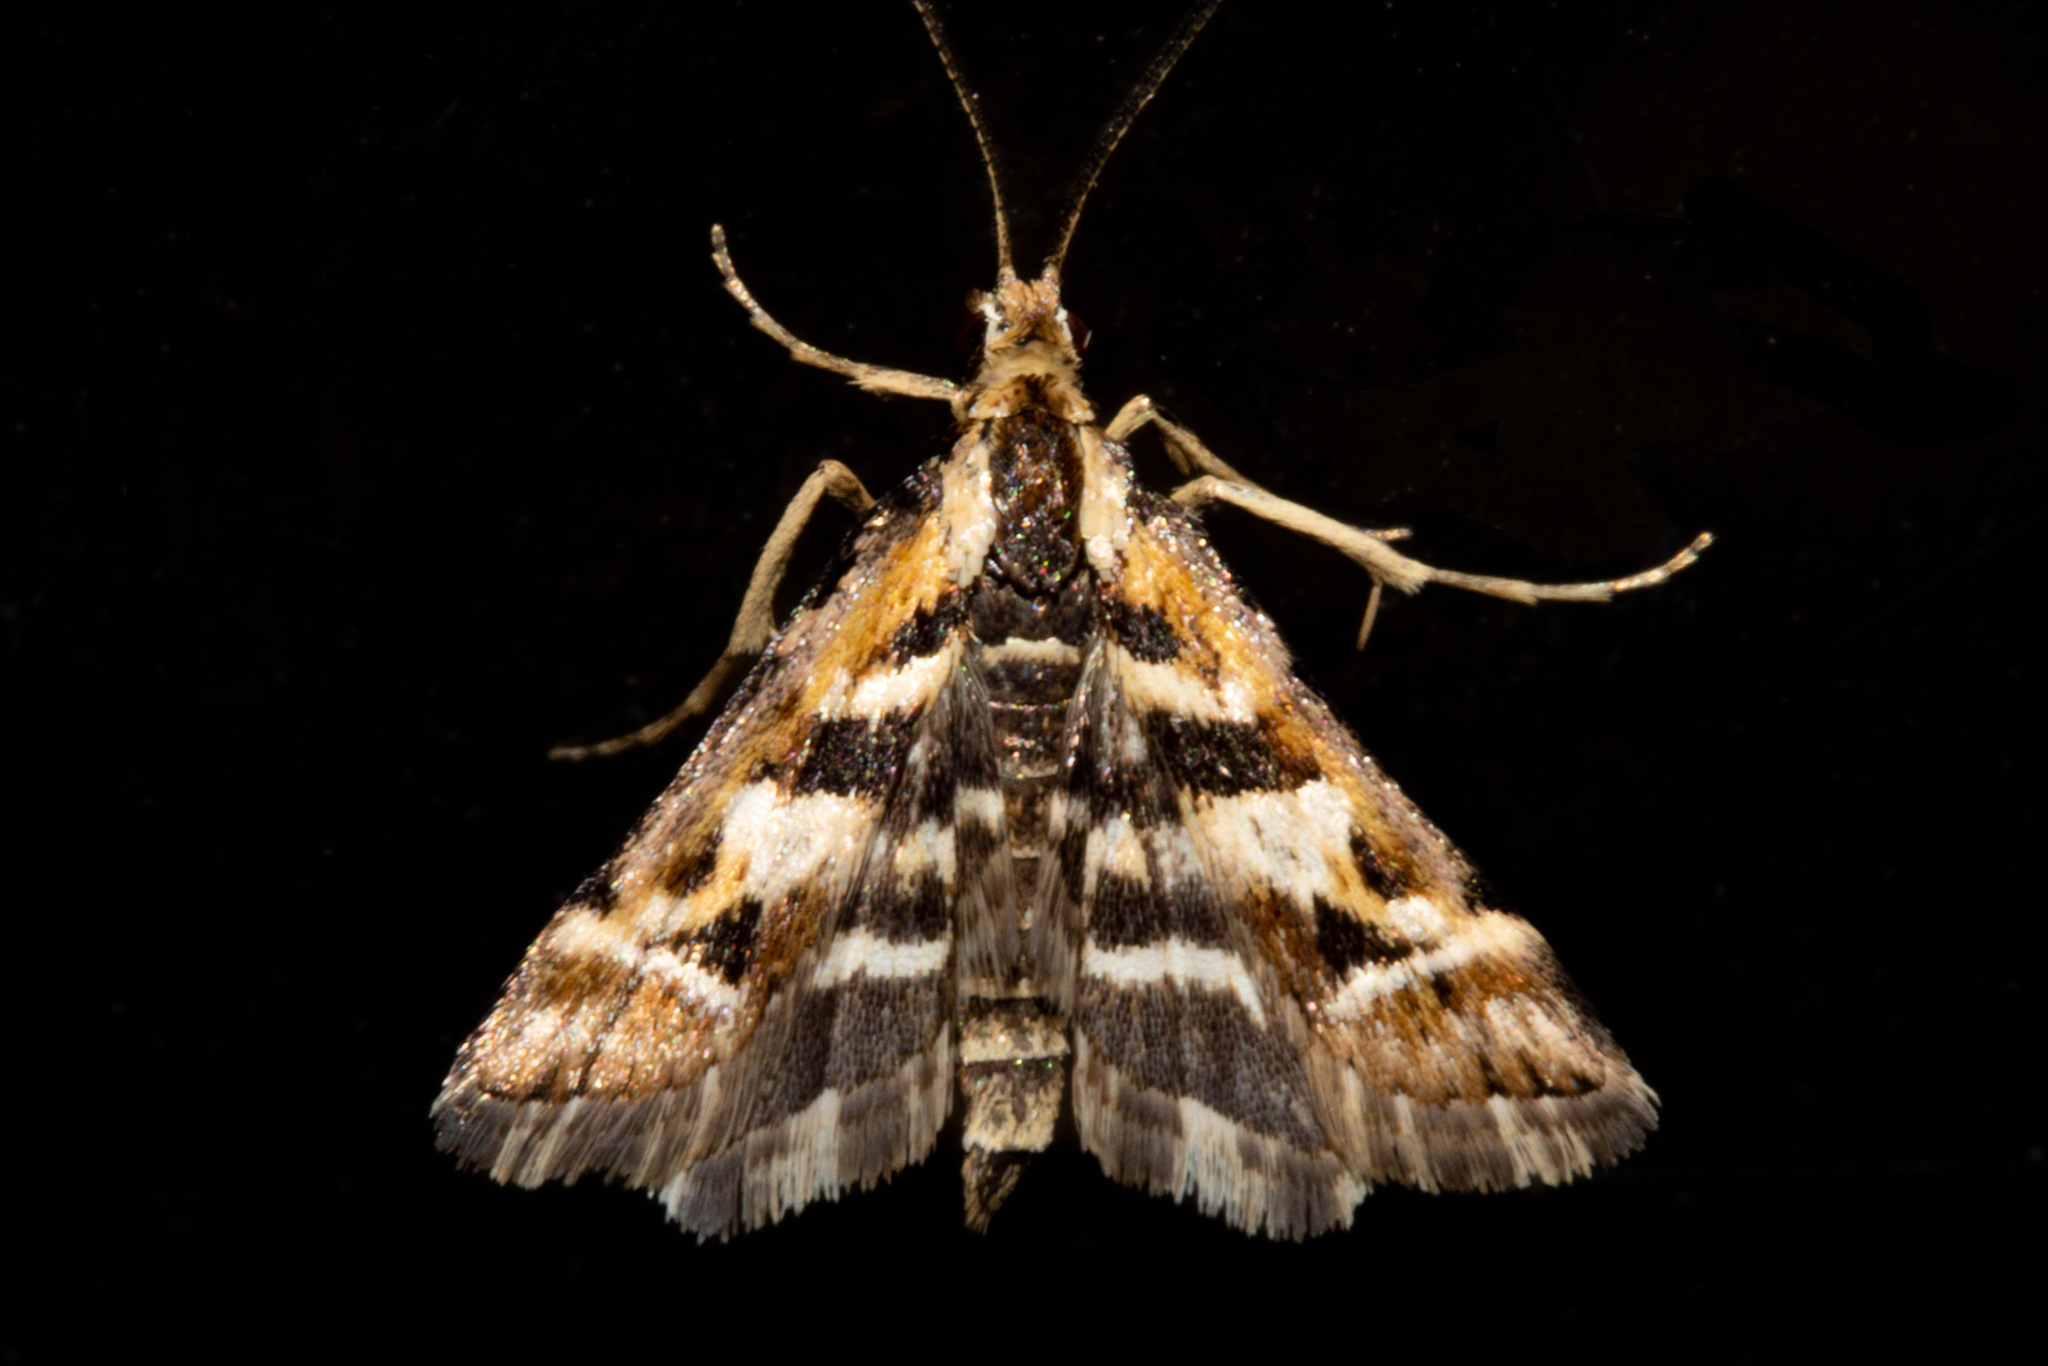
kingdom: Animalia
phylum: Arthropoda
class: Insecta
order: Lepidoptera
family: Crambidae
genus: Diasemia
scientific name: Diasemia grammalis
